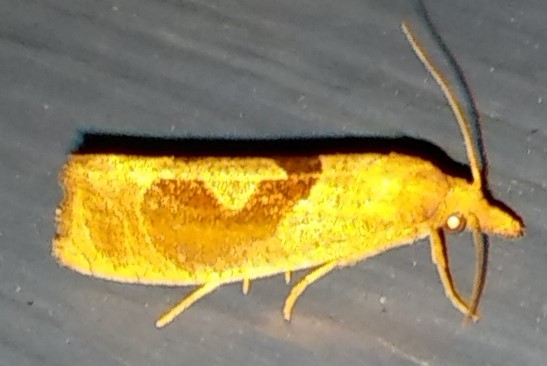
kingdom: Animalia
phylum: Arthropoda
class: Insecta
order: Lepidoptera
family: Tortricidae
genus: Pelochrista
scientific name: Pelochrista similiana
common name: Similar eucosma
